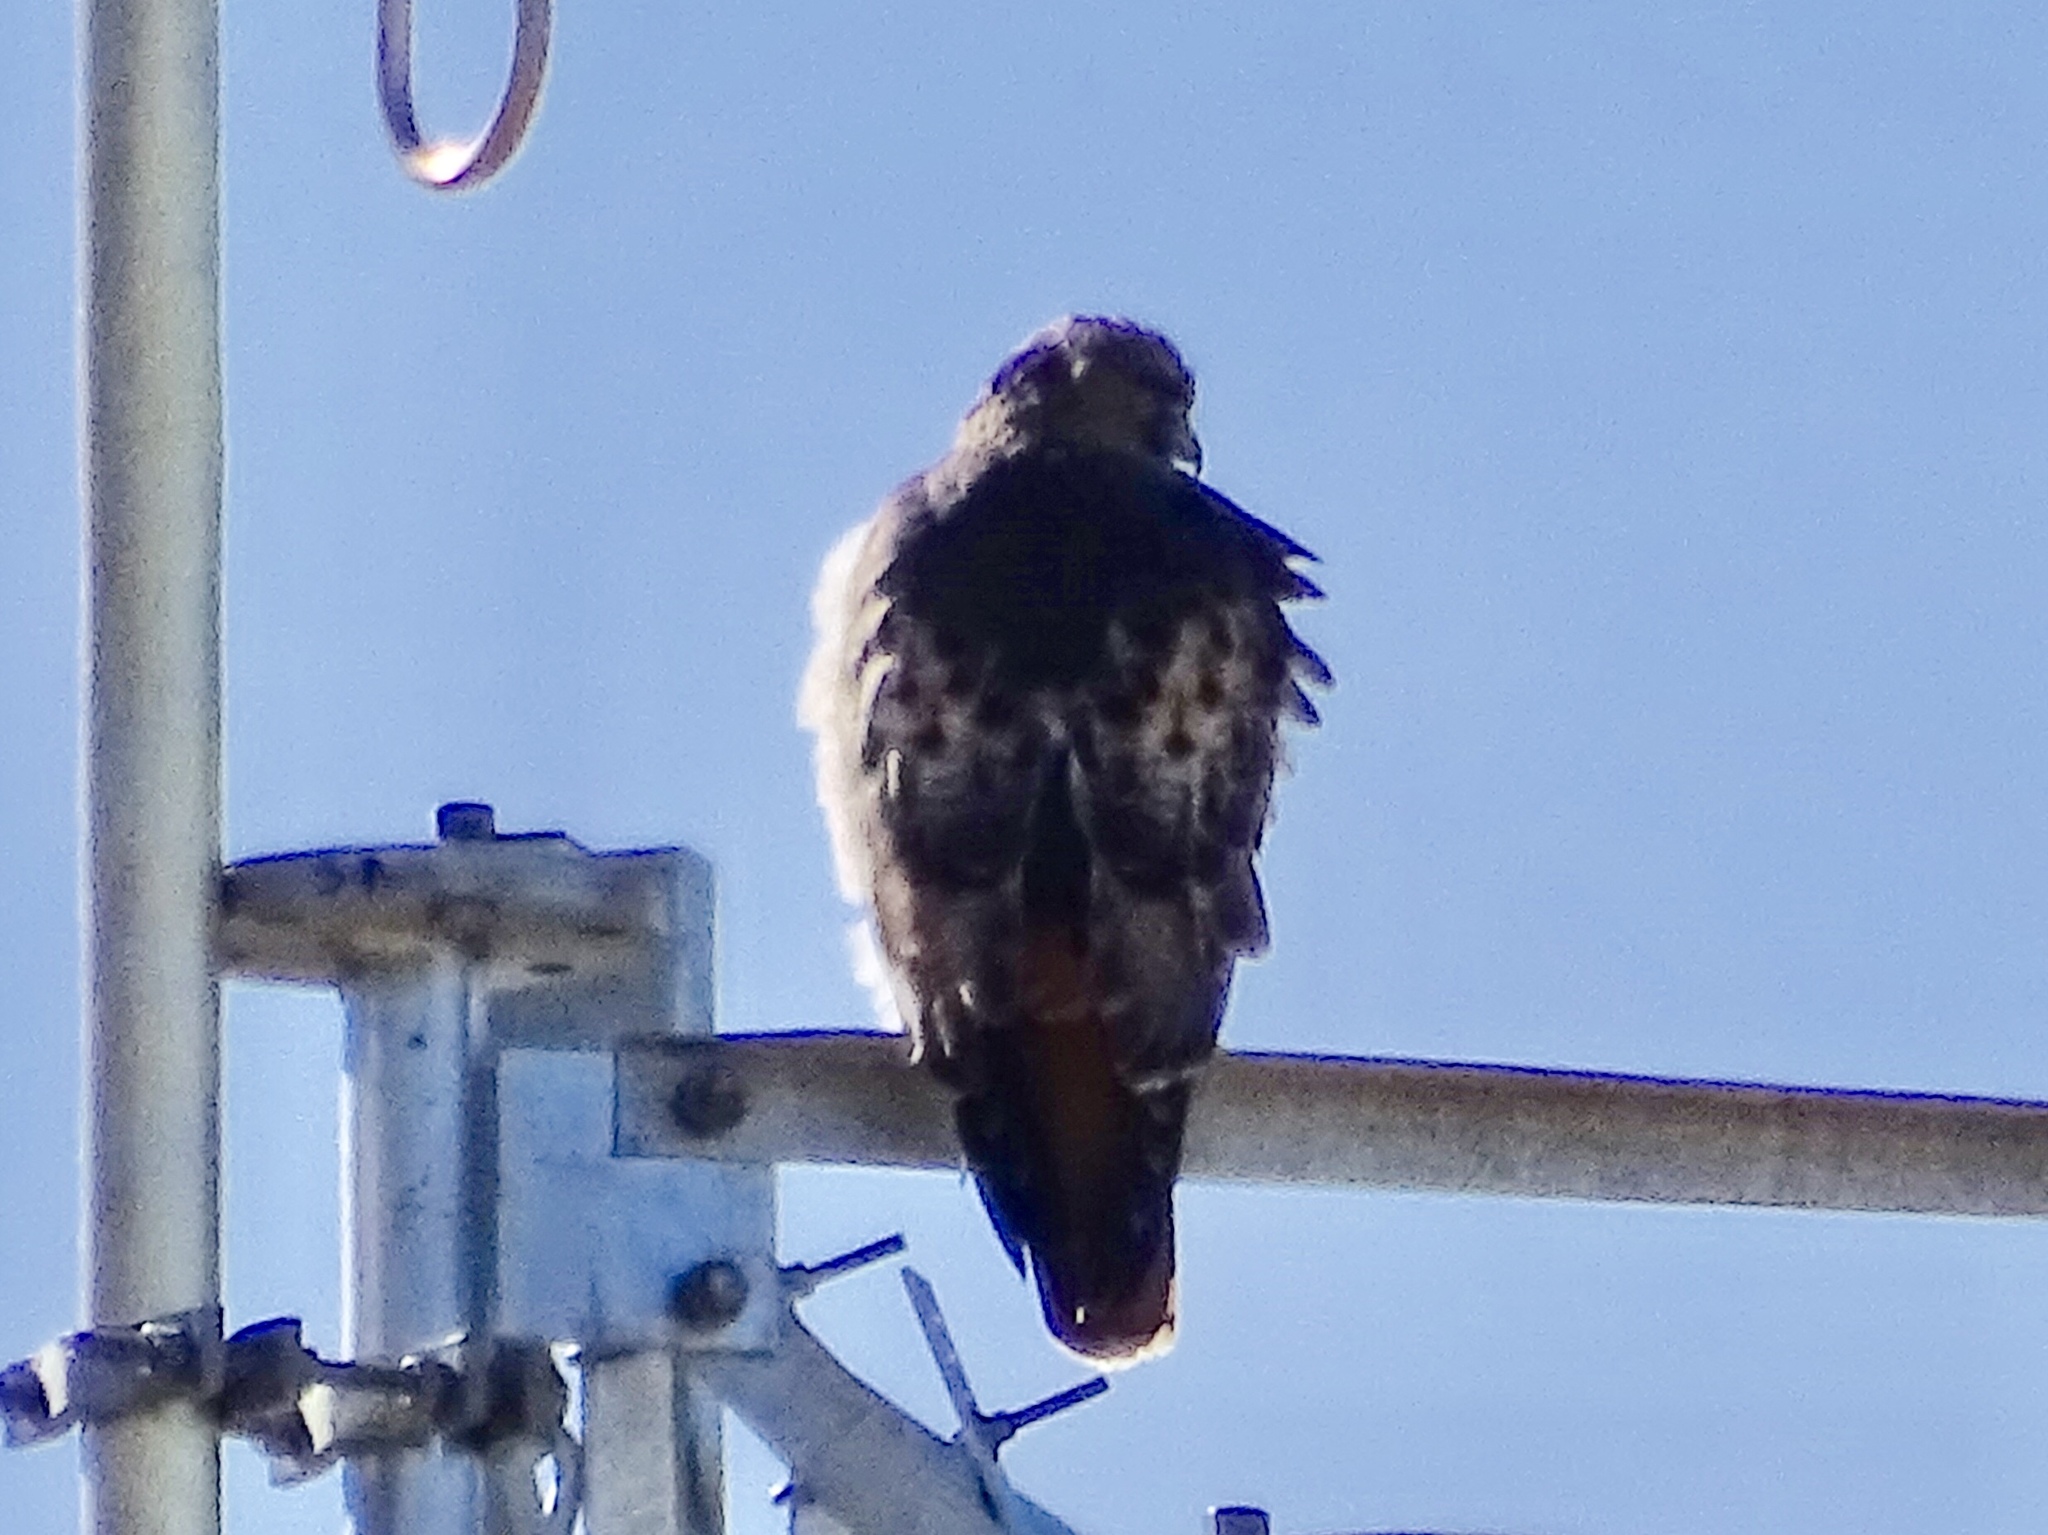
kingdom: Animalia
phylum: Chordata
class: Aves
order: Accipitriformes
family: Accipitridae
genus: Buteo
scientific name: Buteo jamaicensis
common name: Red-tailed hawk
